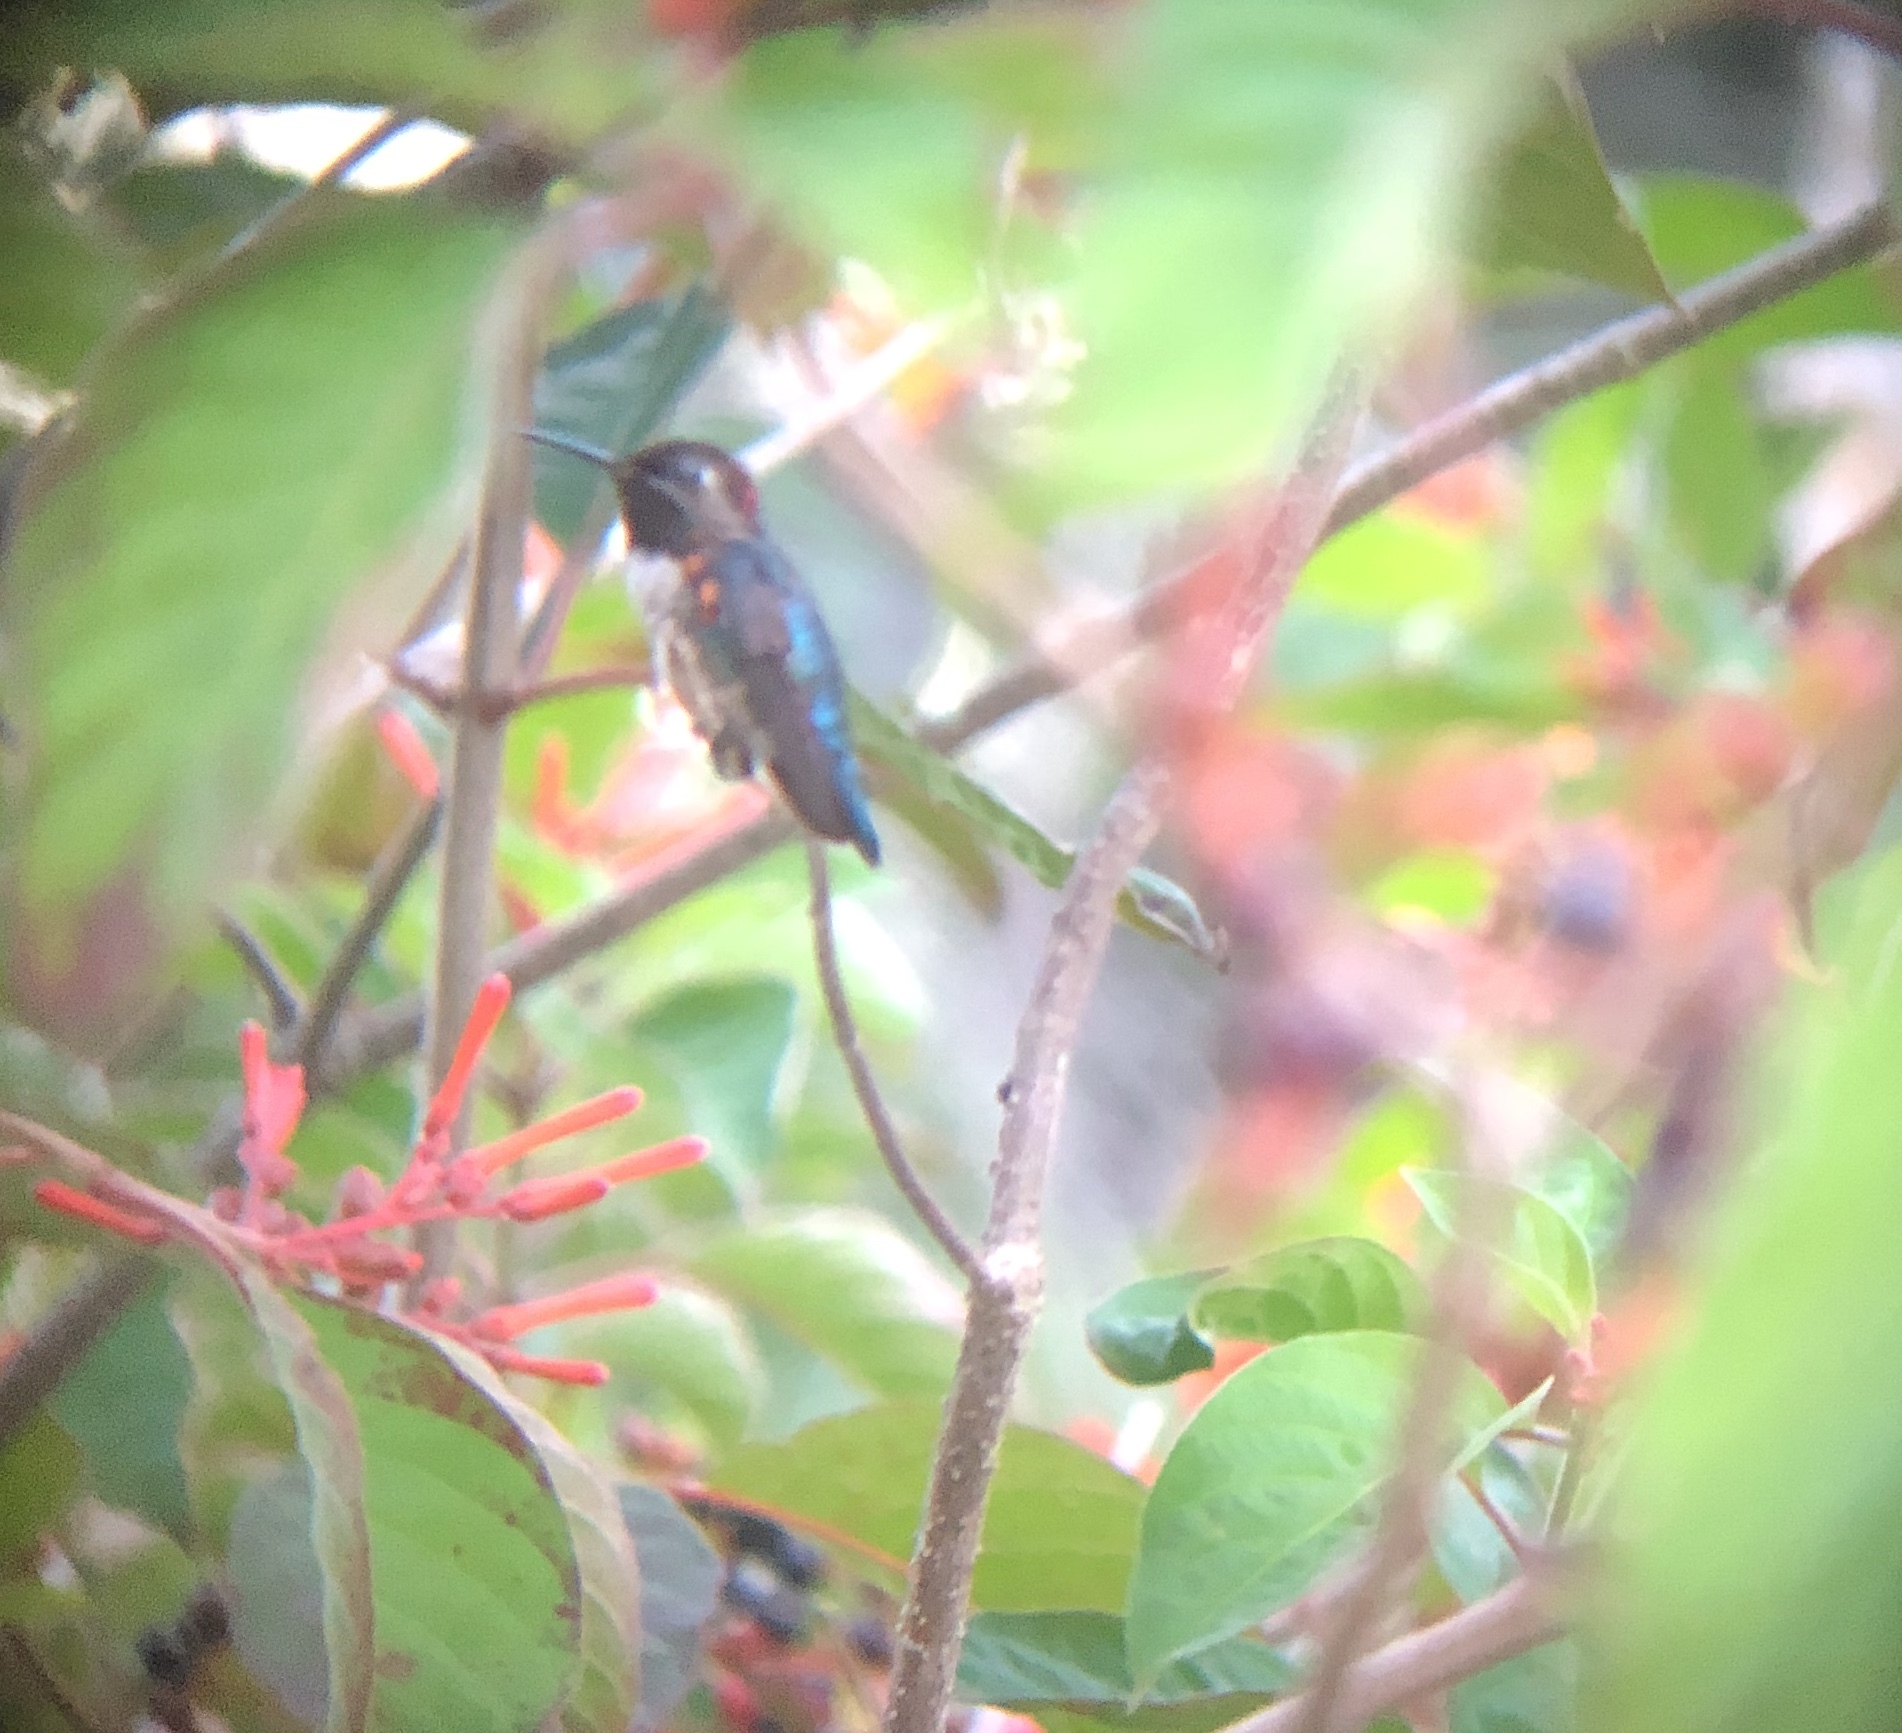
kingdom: Animalia
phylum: Chordata
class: Aves
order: Apodiformes
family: Trochilidae
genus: Mellisuga
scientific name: Mellisuga helenae
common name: Bee hummingbird
